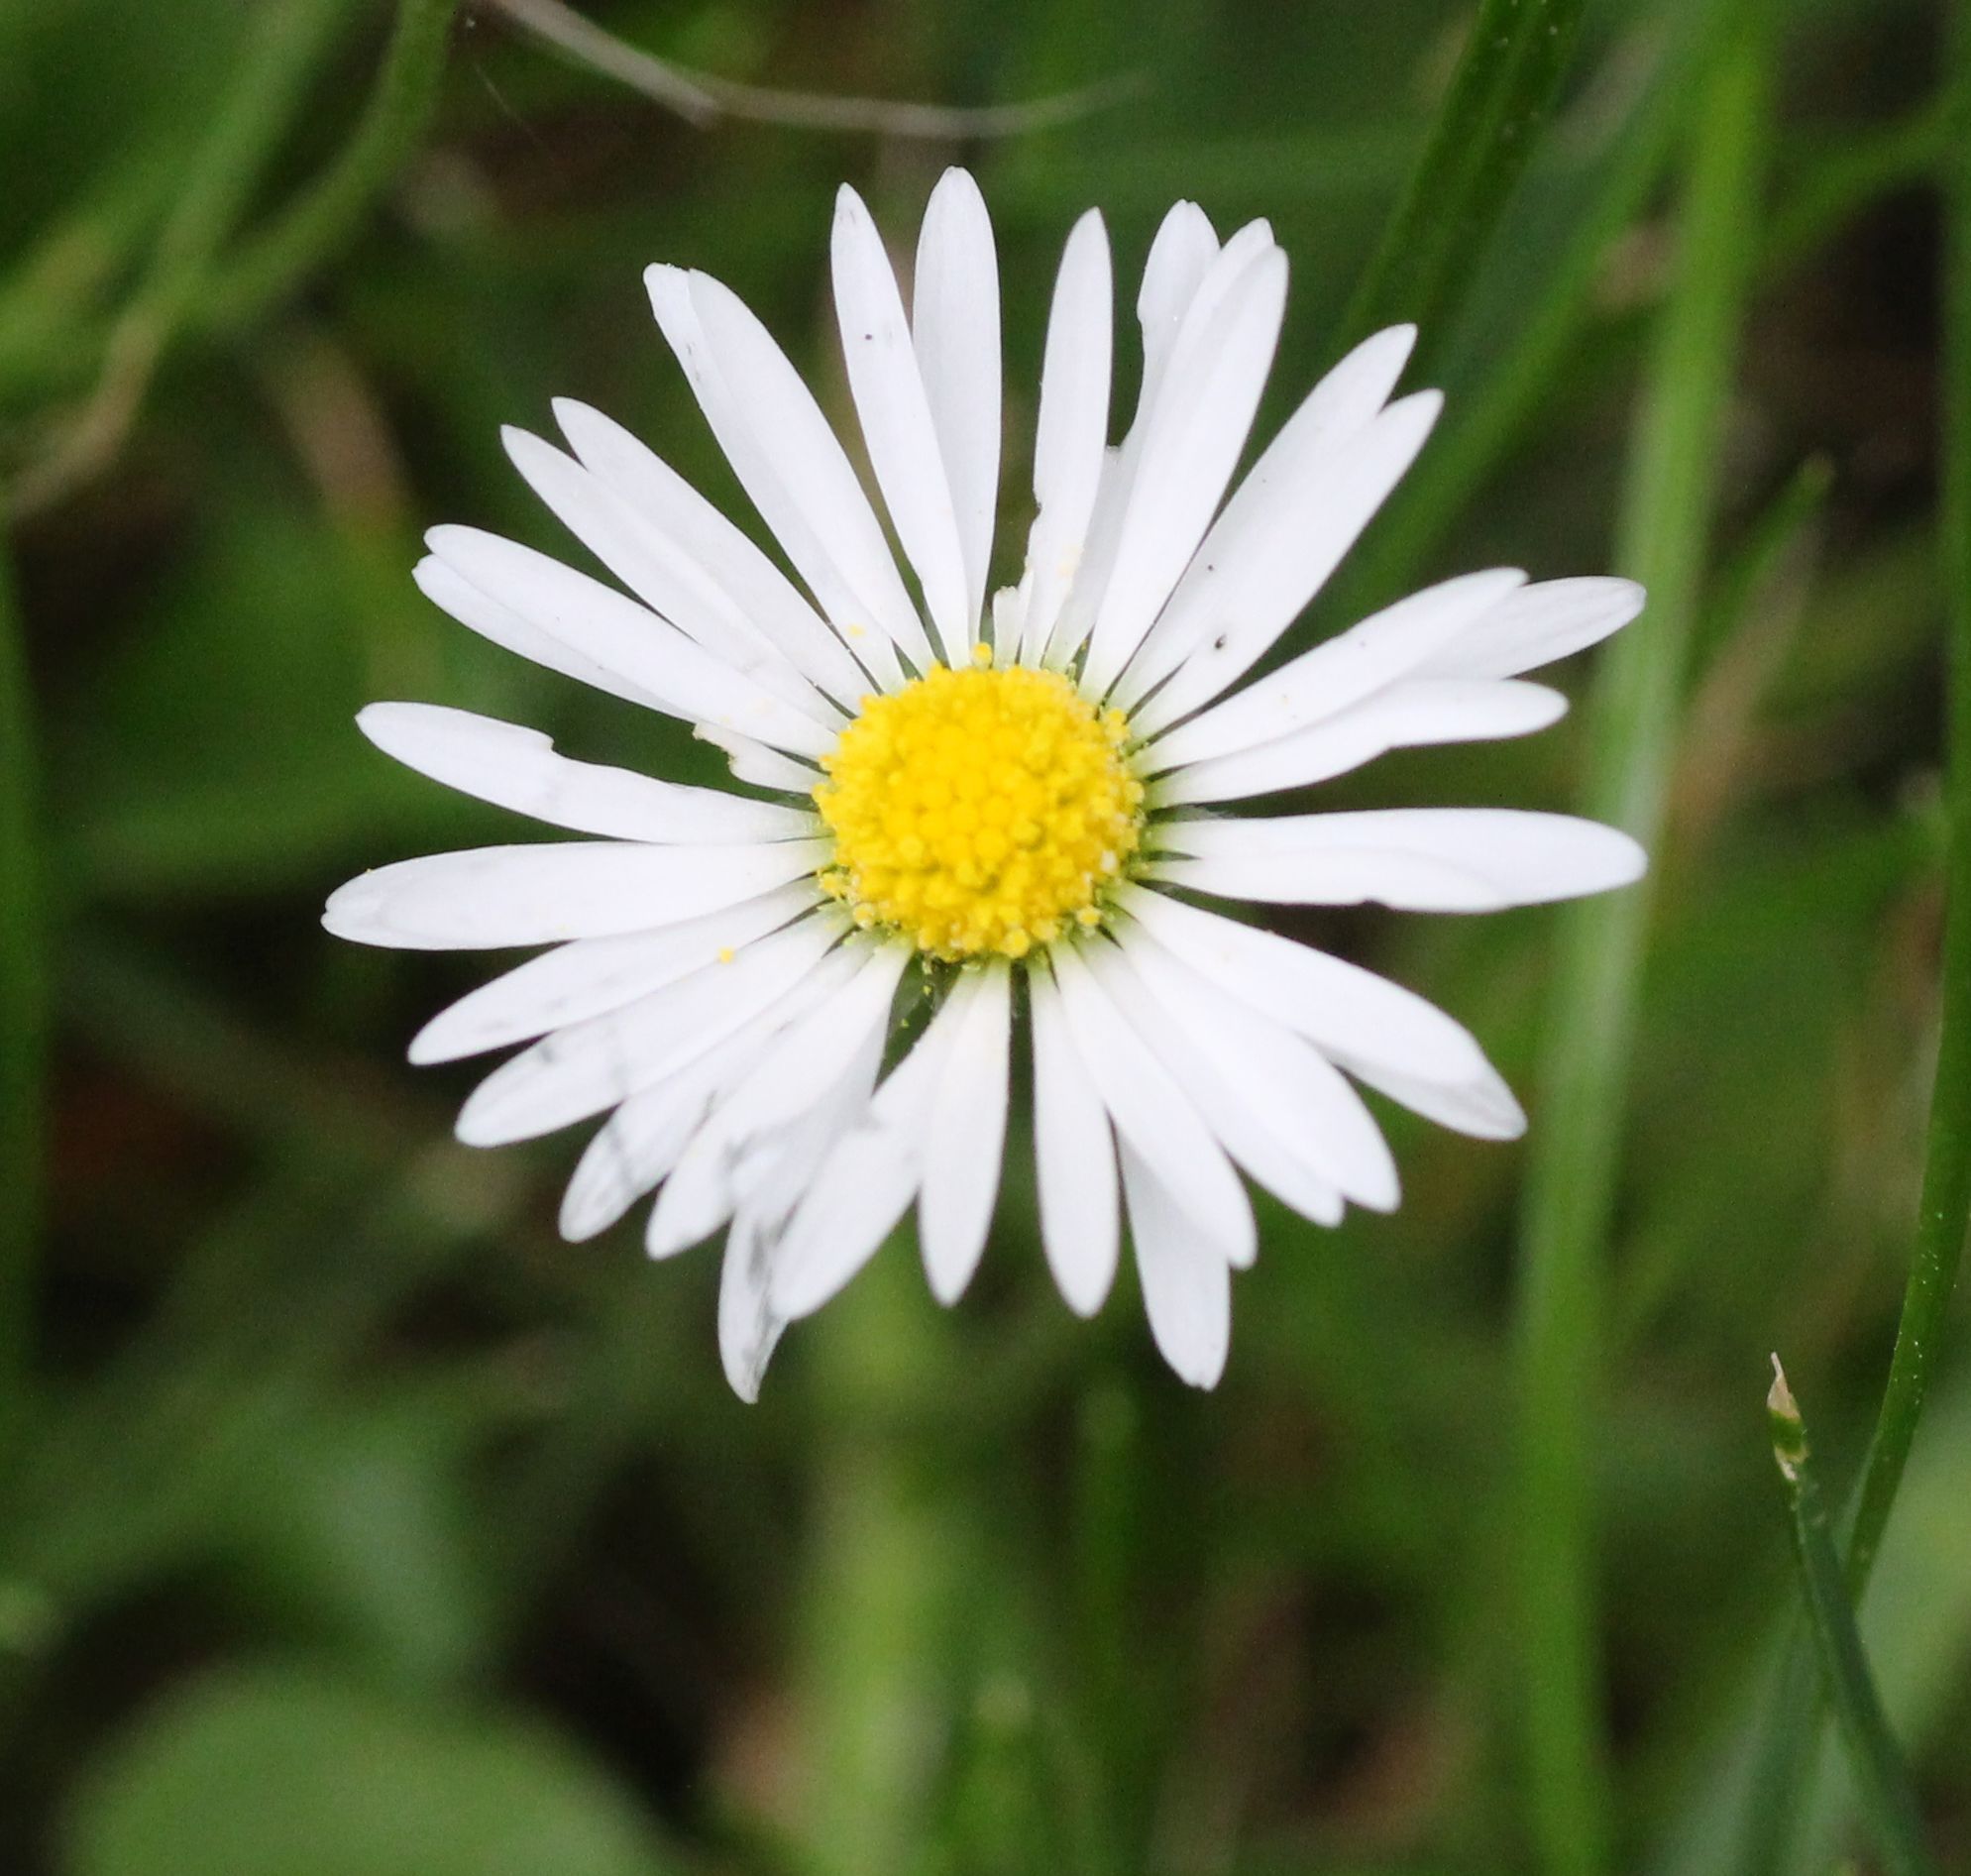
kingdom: Plantae
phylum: Tracheophyta
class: Magnoliopsida
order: Asterales
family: Asteraceae
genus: Bellis
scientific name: Bellis perennis
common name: Lawndaisy
